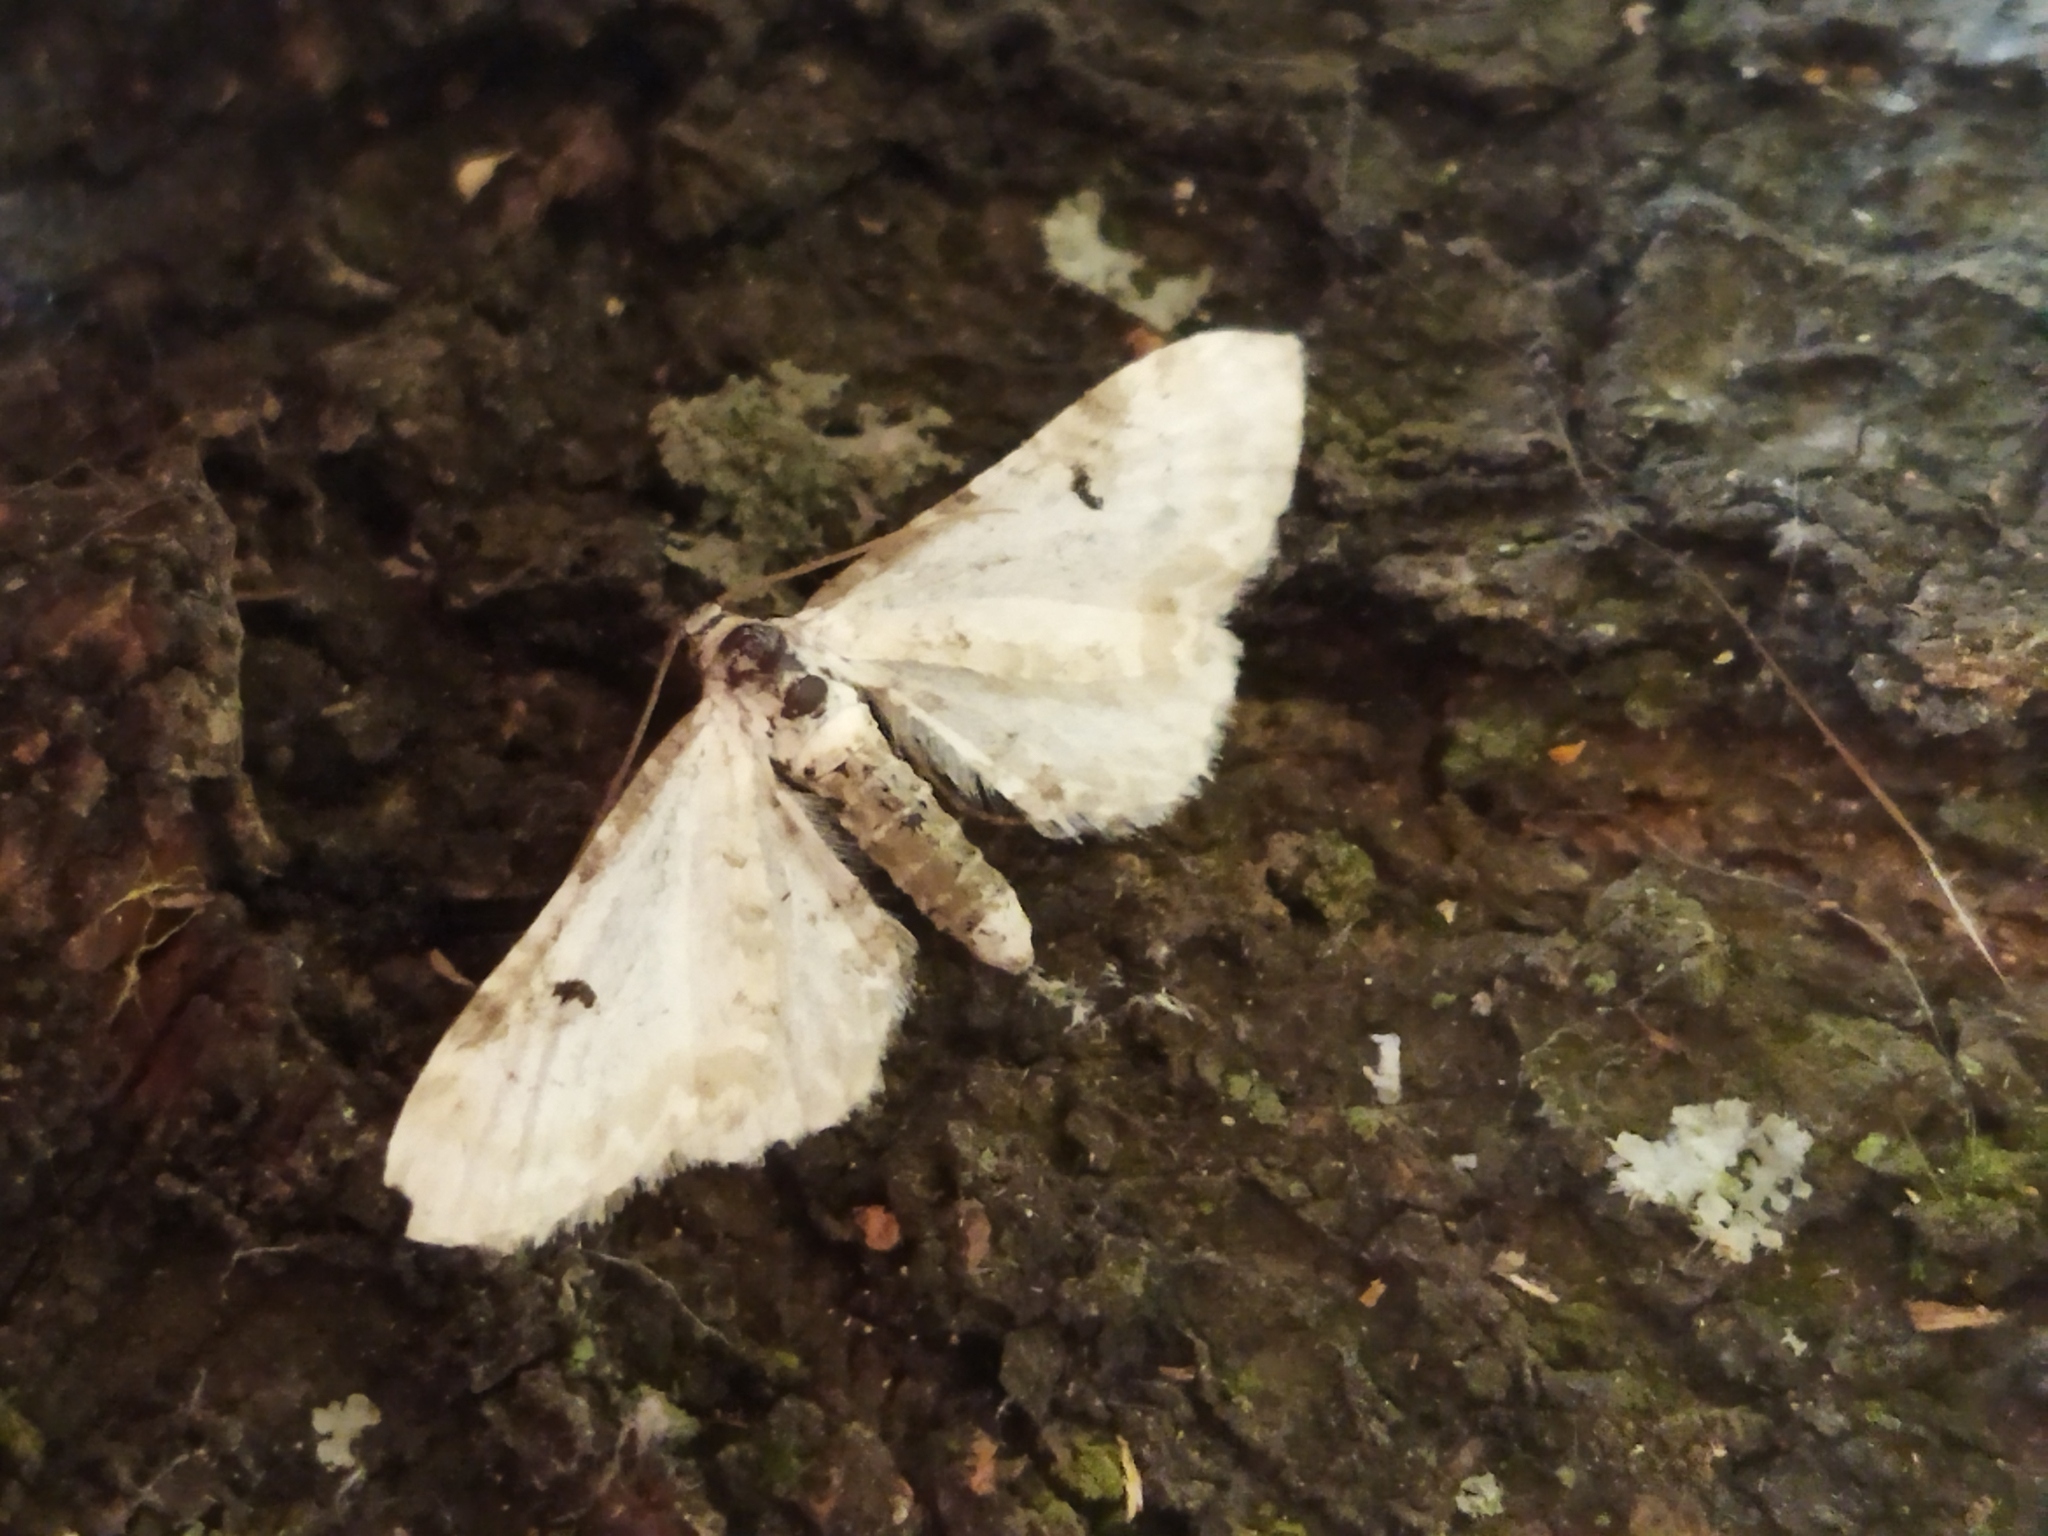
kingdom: Animalia
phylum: Arthropoda
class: Insecta
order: Lepidoptera
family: Geometridae
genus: Eupithecia
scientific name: Eupithecia centaureata
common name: Lime-speck pug
